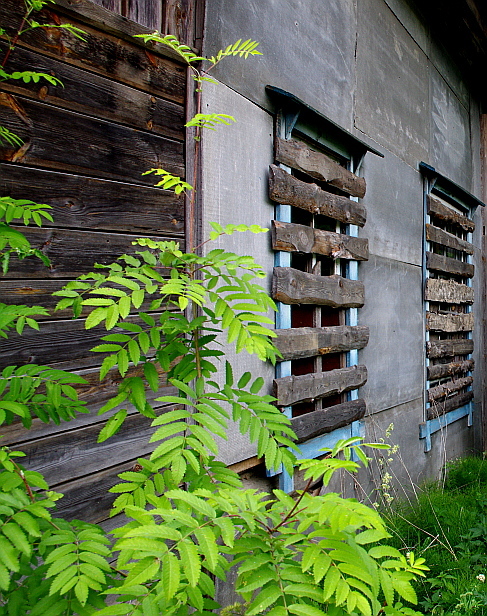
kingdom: Plantae
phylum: Tracheophyta
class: Magnoliopsida
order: Rosales
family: Rosaceae
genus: Sorbus
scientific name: Sorbus aucuparia
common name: Rowan
